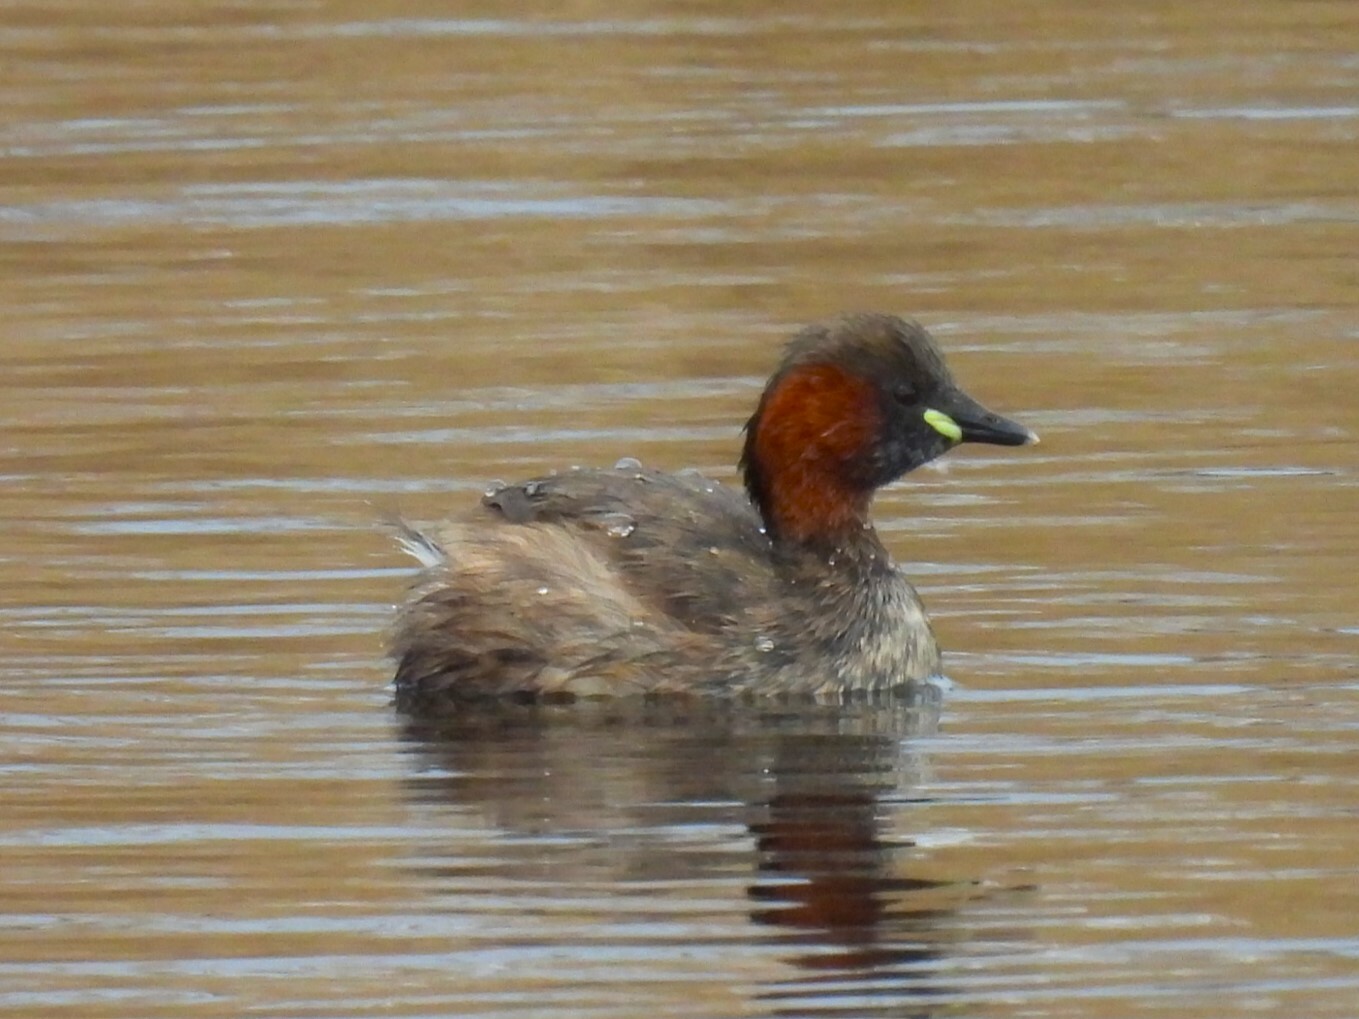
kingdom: Animalia
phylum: Chordata
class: Aves
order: Podicipediformes
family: Podicipedidae
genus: Tachybaptus
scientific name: Tachybaptus ruficollis
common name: Little grebe
